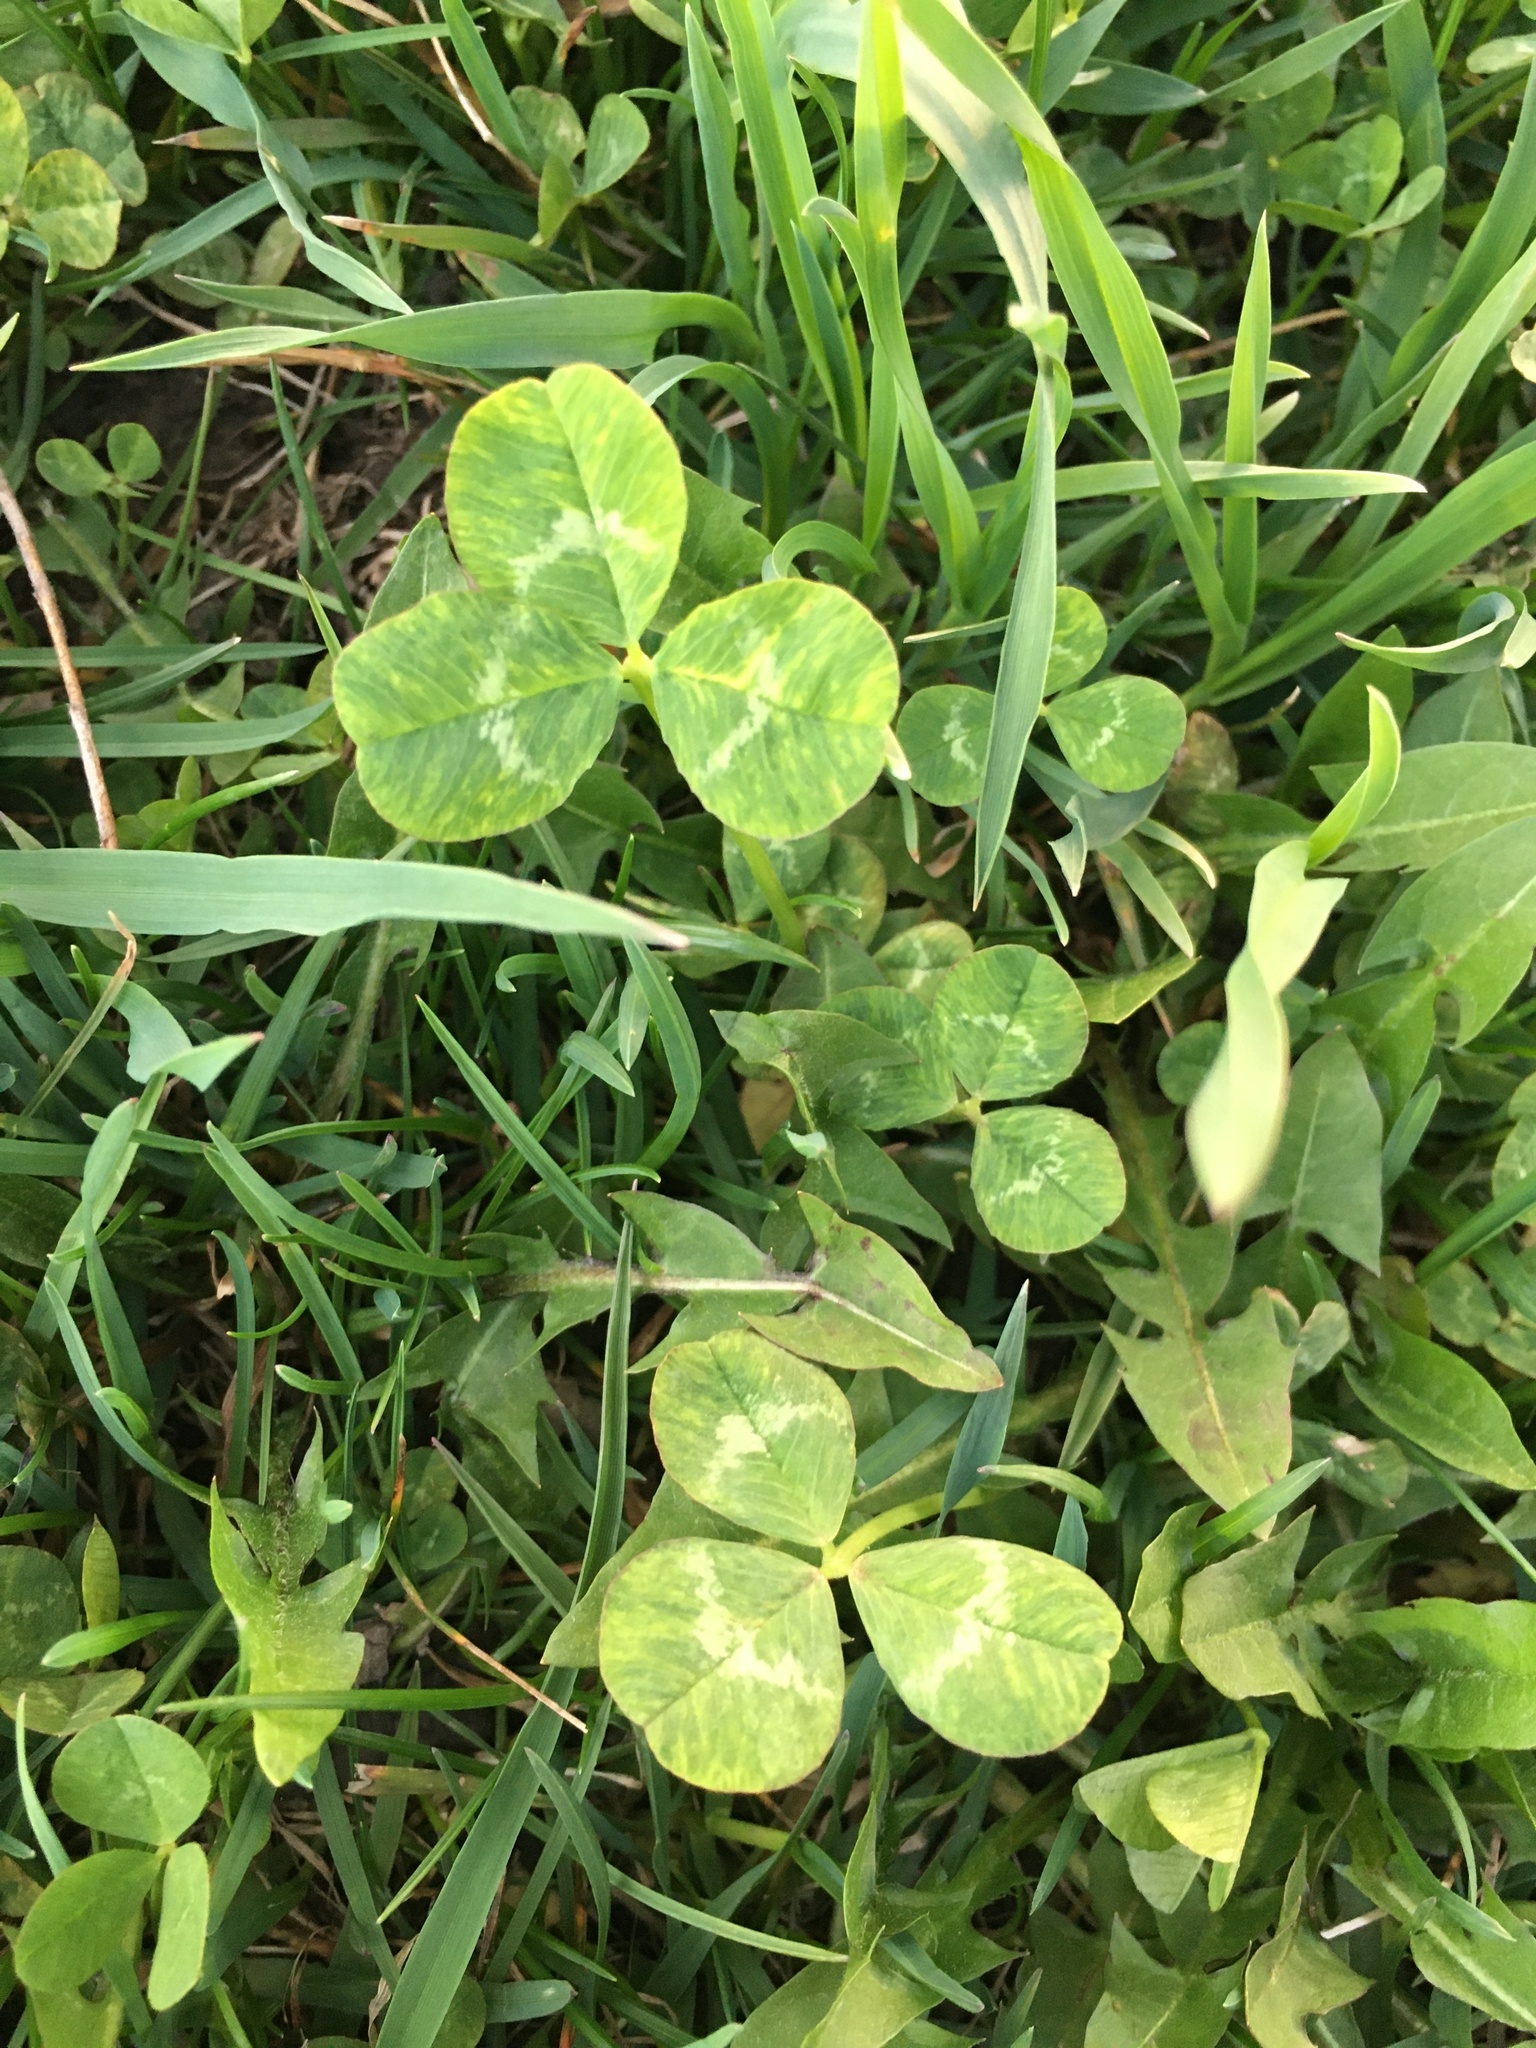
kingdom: Plantae
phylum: Tracheophyta
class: Magnoliopsida
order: Fabales
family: Fabaceae
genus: Trifolium
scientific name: Trifolium repens
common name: White clover
